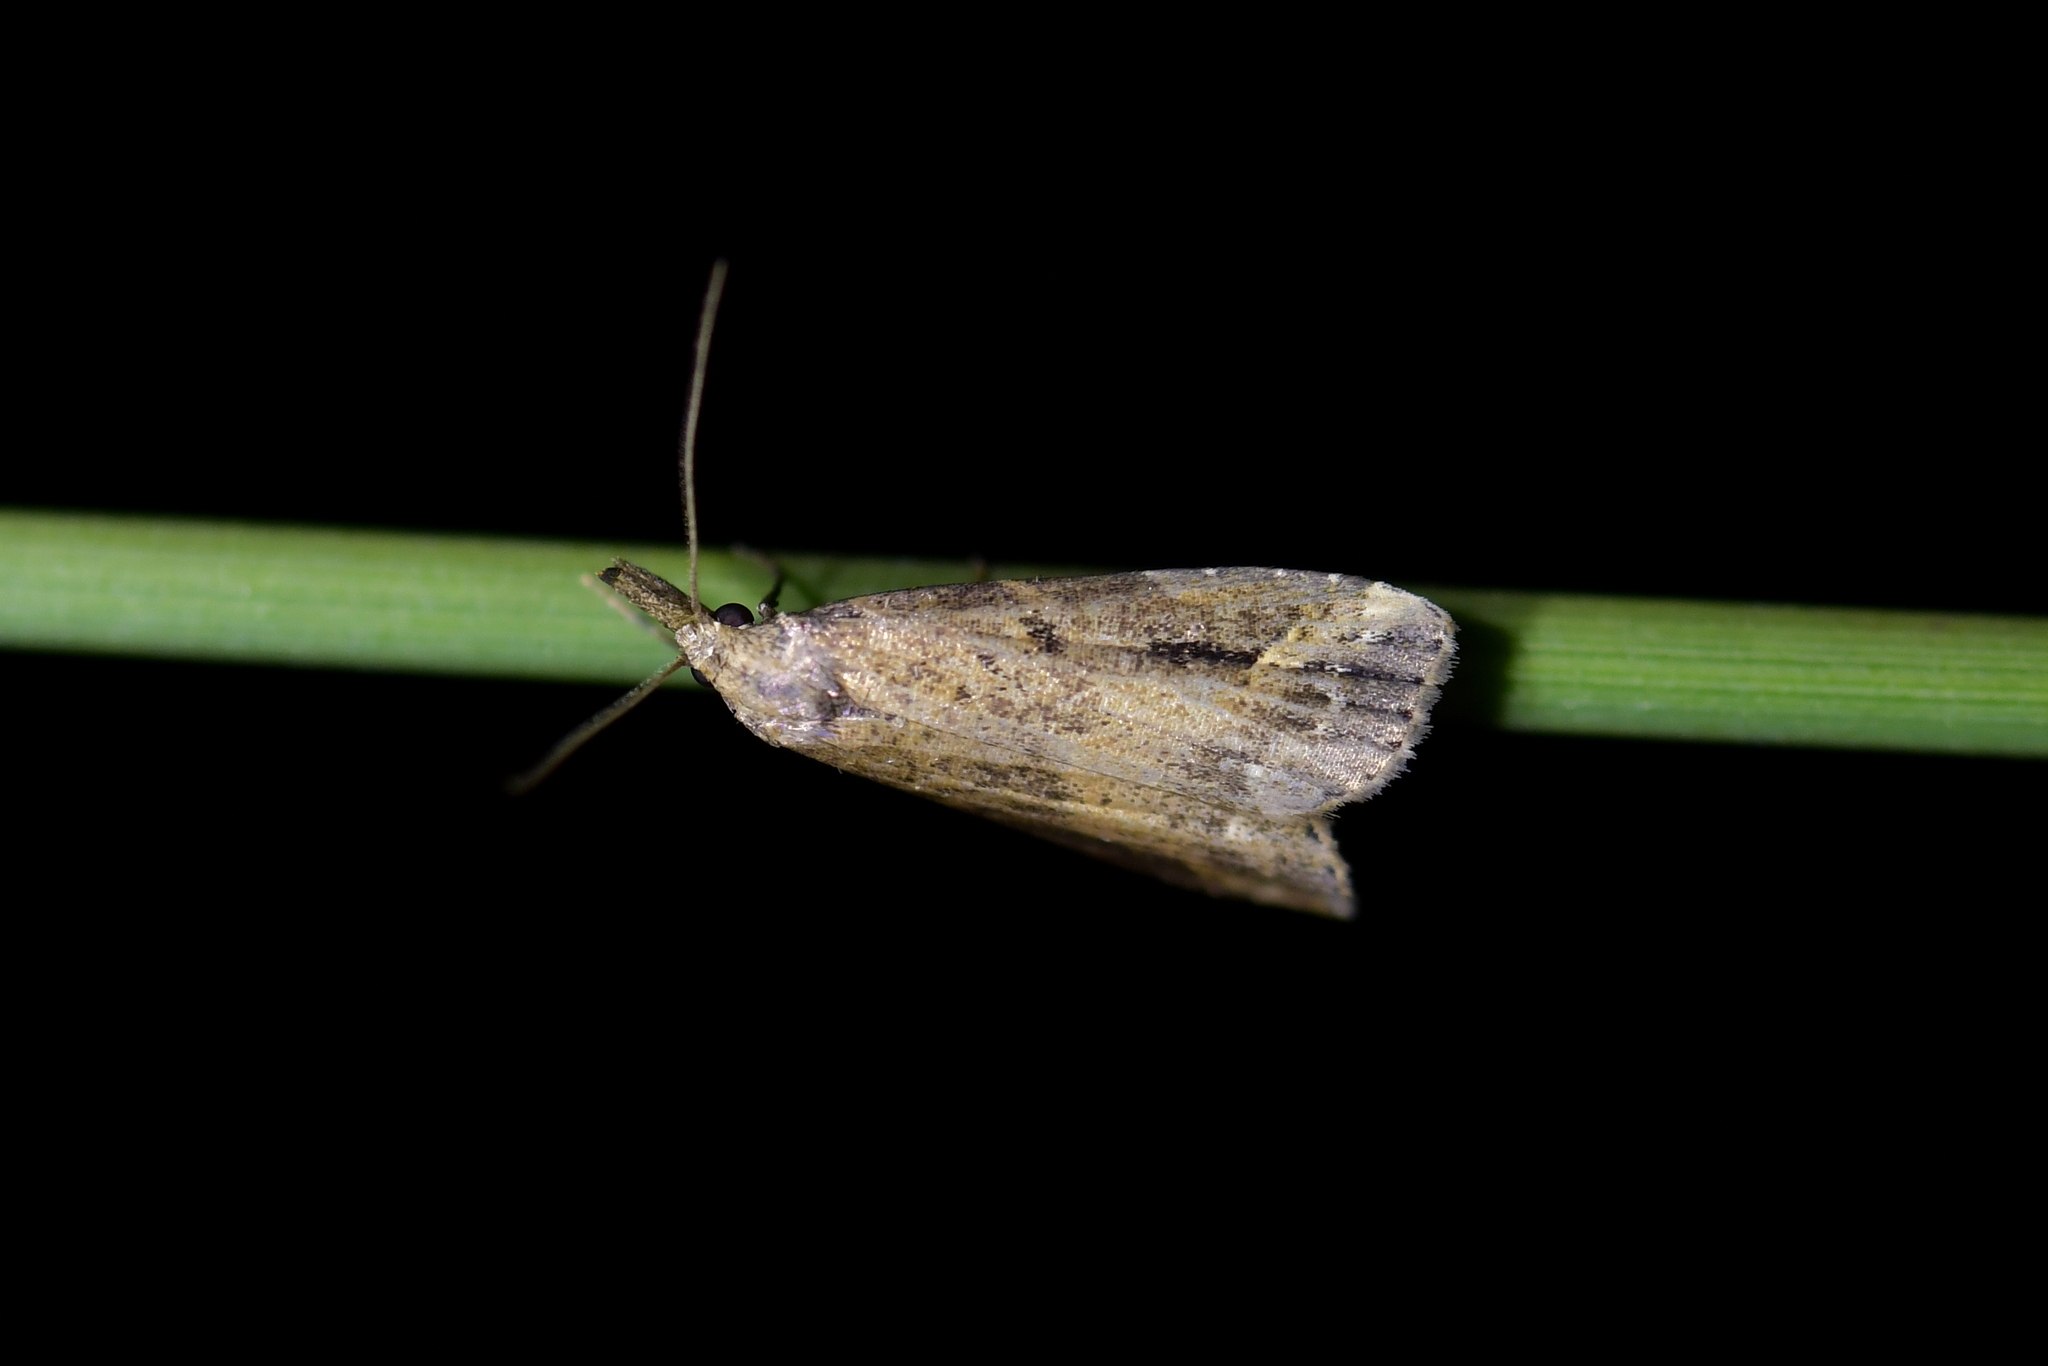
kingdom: Animalia
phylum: Arthropoda
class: Insecta
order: Lepidoptera
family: Erebidae
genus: Schrankia
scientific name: Schrankia costaestrigalis
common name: Pinion-streaked snout
